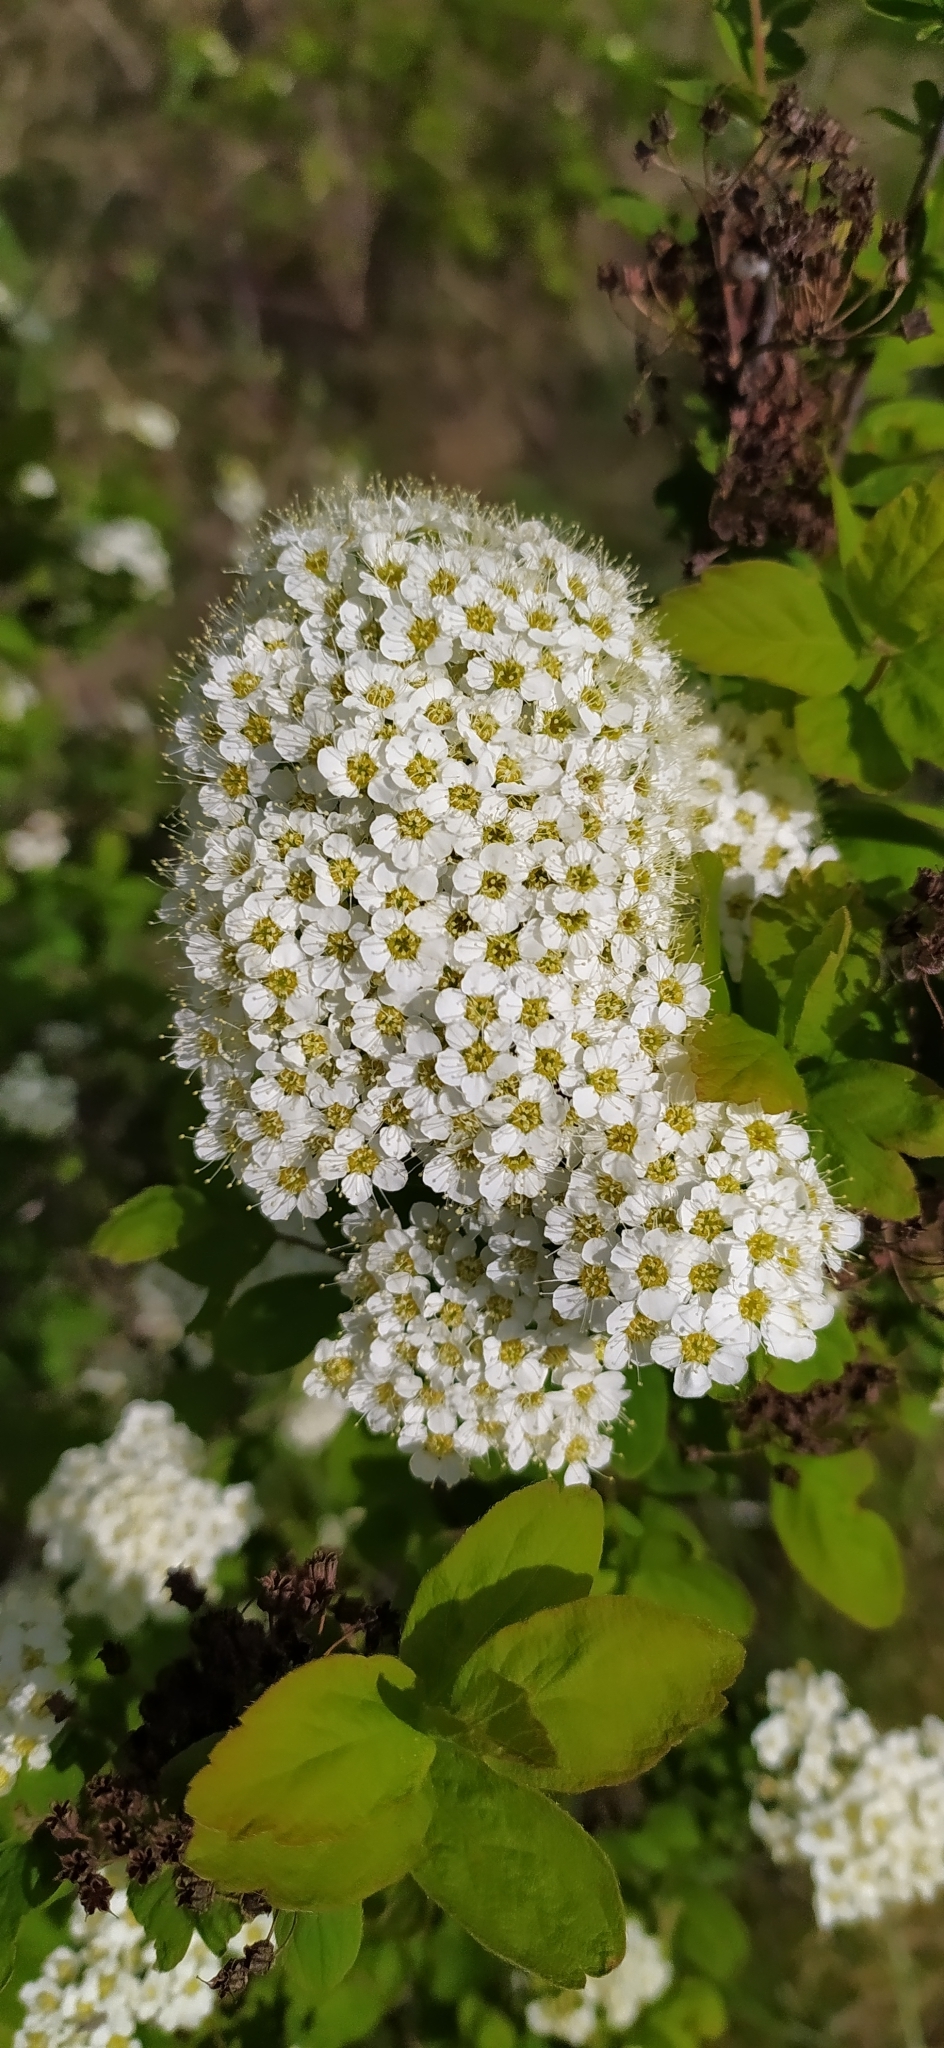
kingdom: Plantae
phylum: Tracheophyta
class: Magnoliopsida
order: Rosales
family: Rosaceae
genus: Spiraea
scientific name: Spiraea media
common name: Russian spiraea
